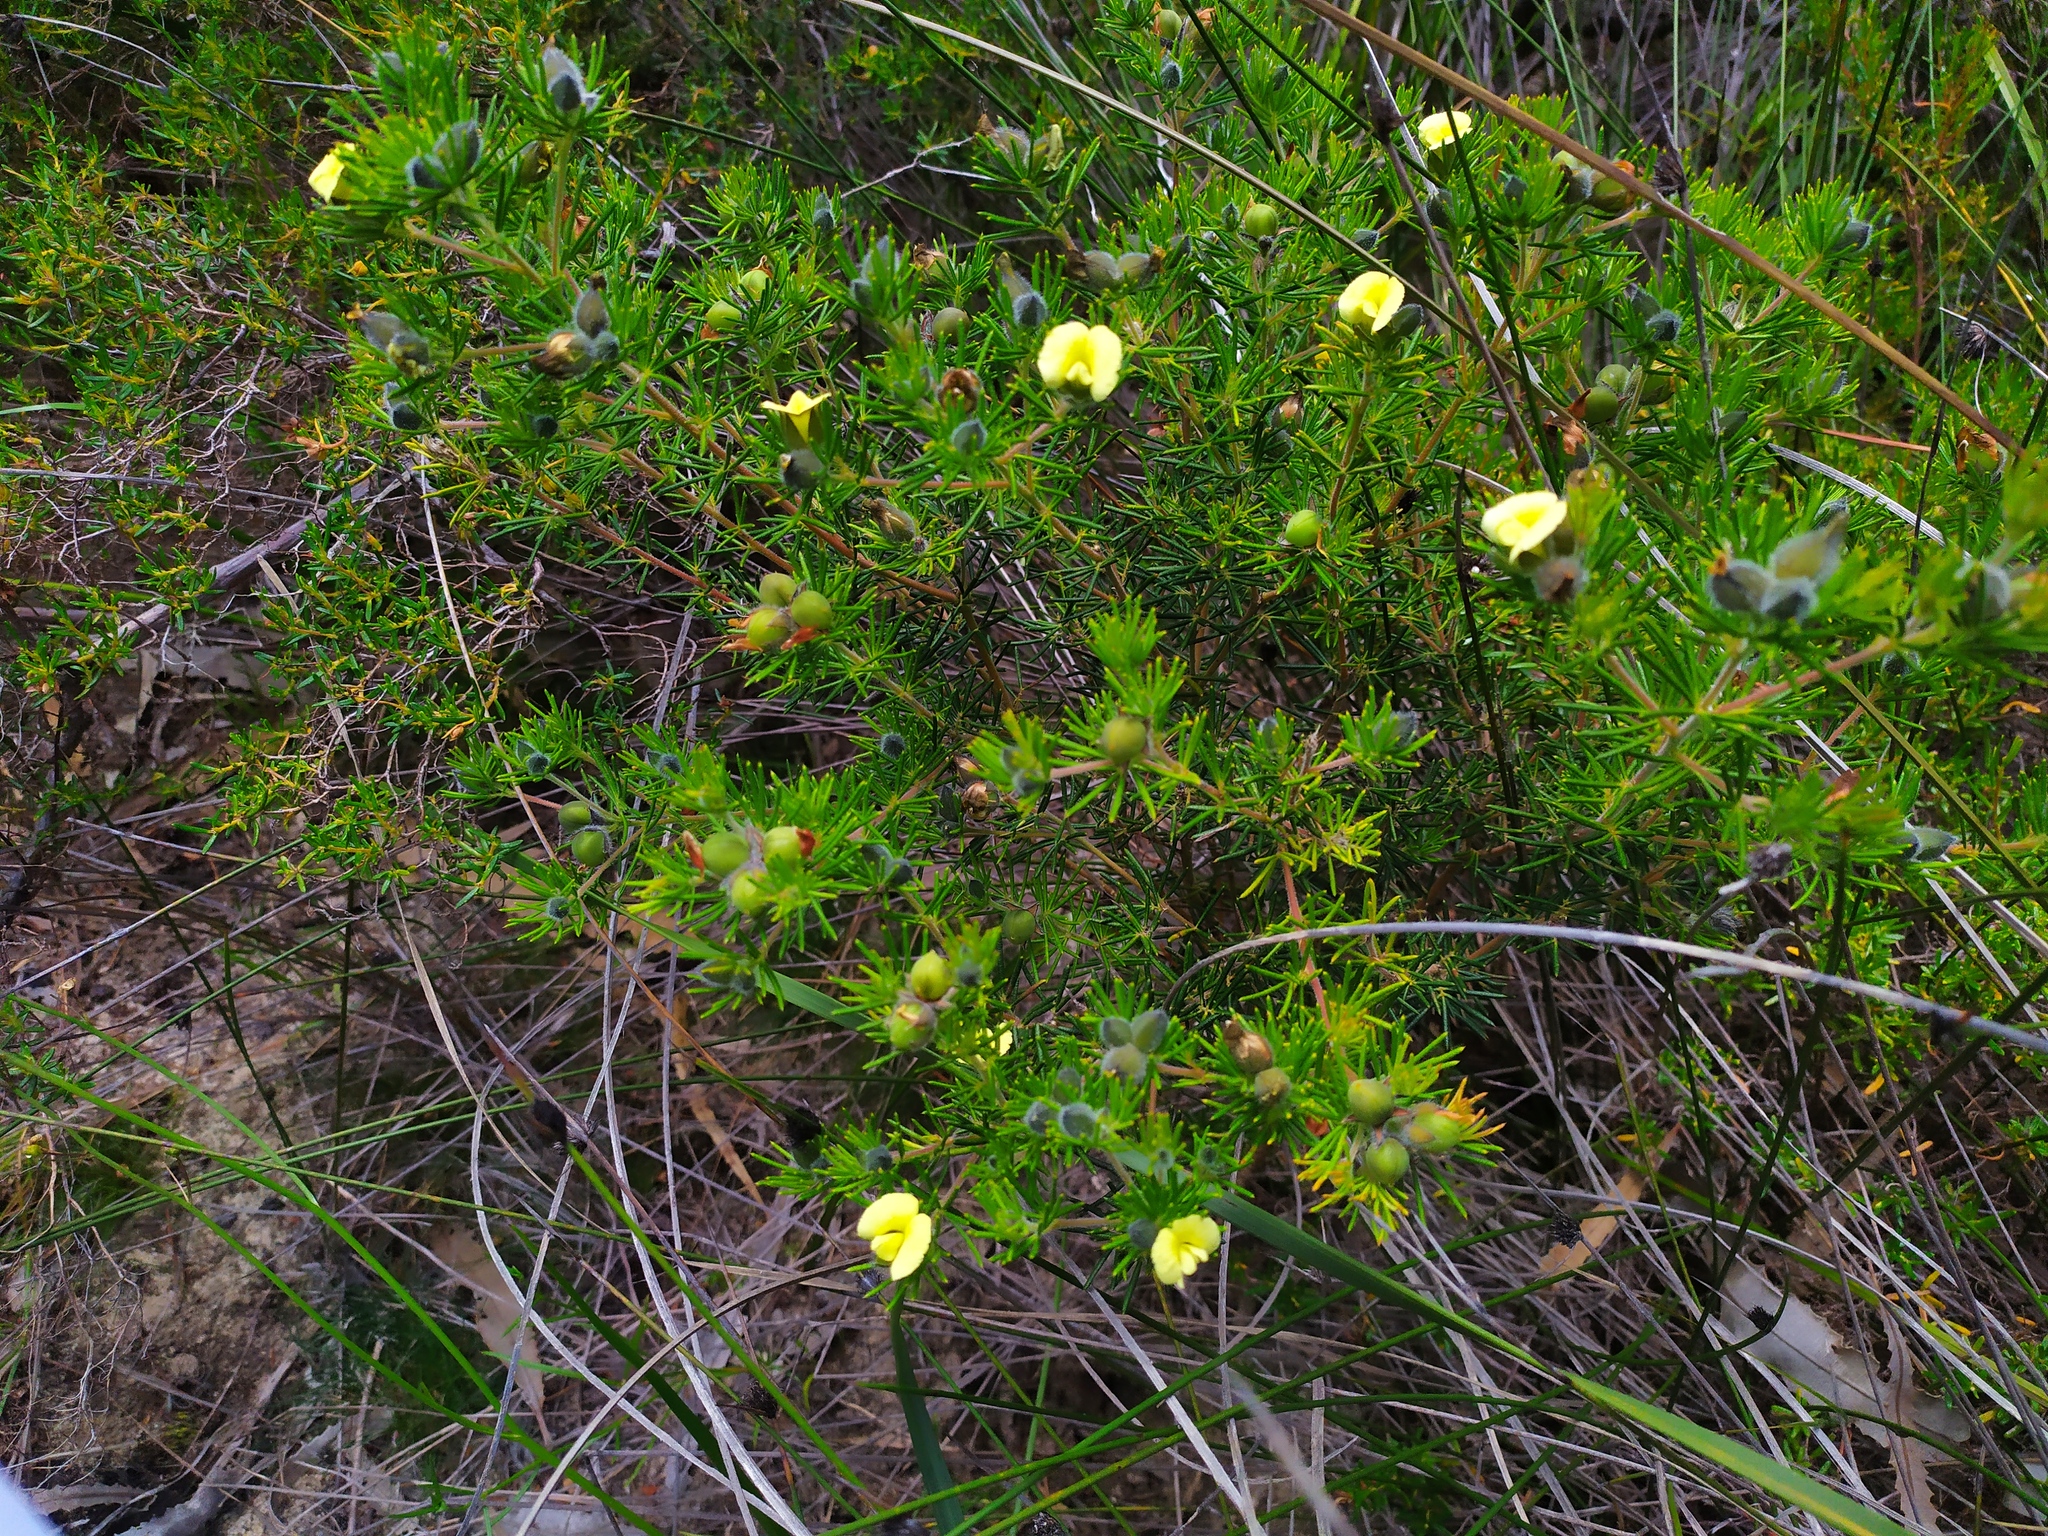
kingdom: Plantae
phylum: Tracheophyta
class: Magnoliopsida
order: Fabales
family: Fabaceae
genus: Gompholobium
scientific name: Gompholobium tomentosum
